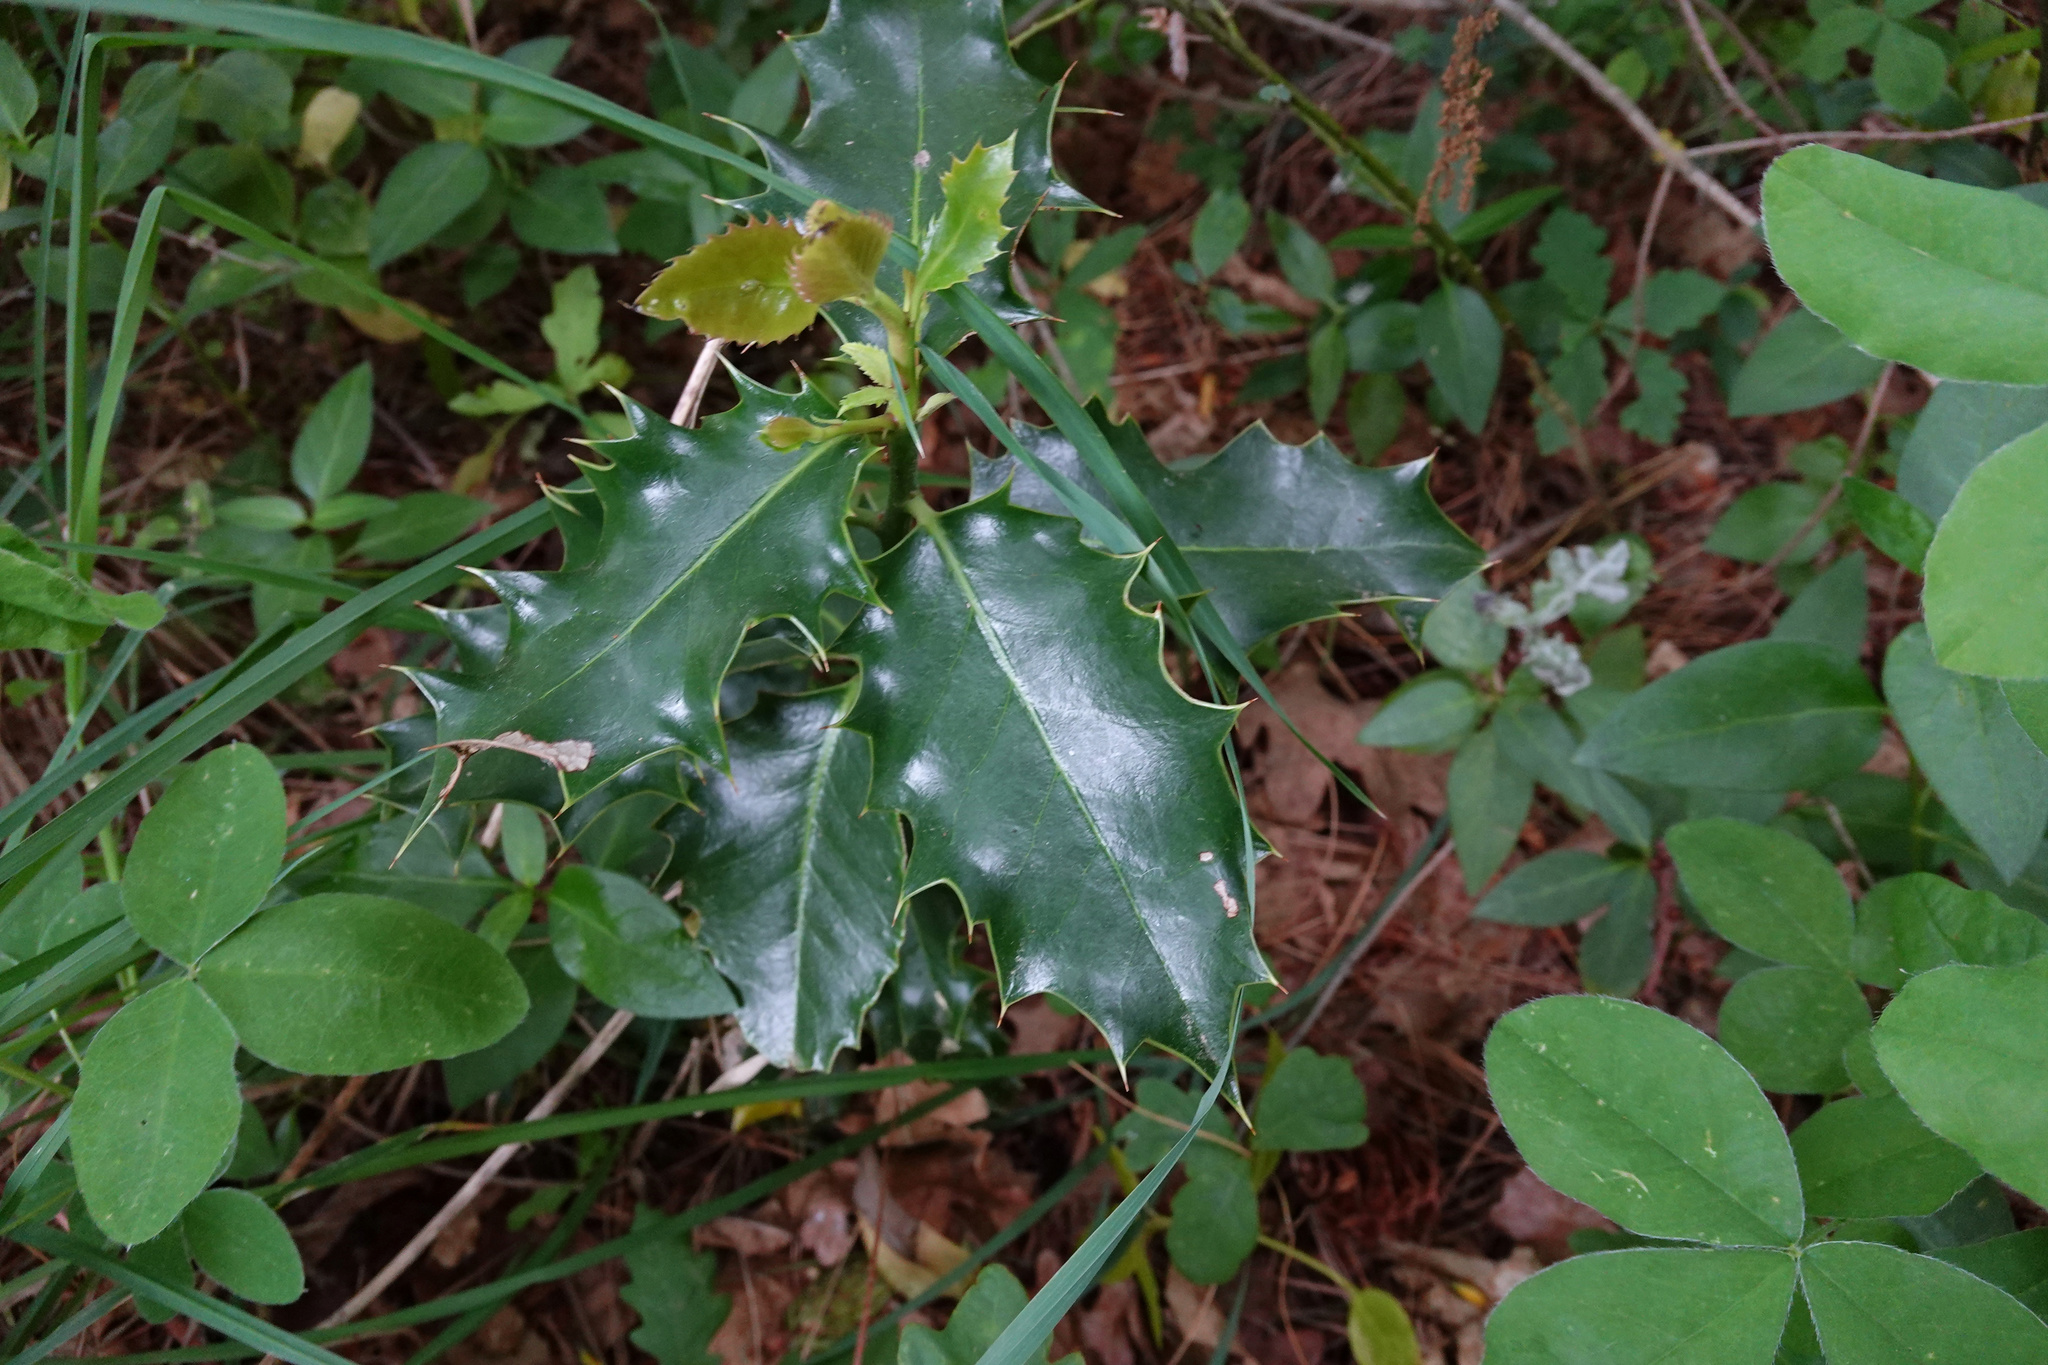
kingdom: Plantae
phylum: Tracheophyta
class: Magnoliopsida
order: Aquifoliales
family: Aquifoliaceae
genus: Ilex
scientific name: Ilex aquifolium
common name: English holly
